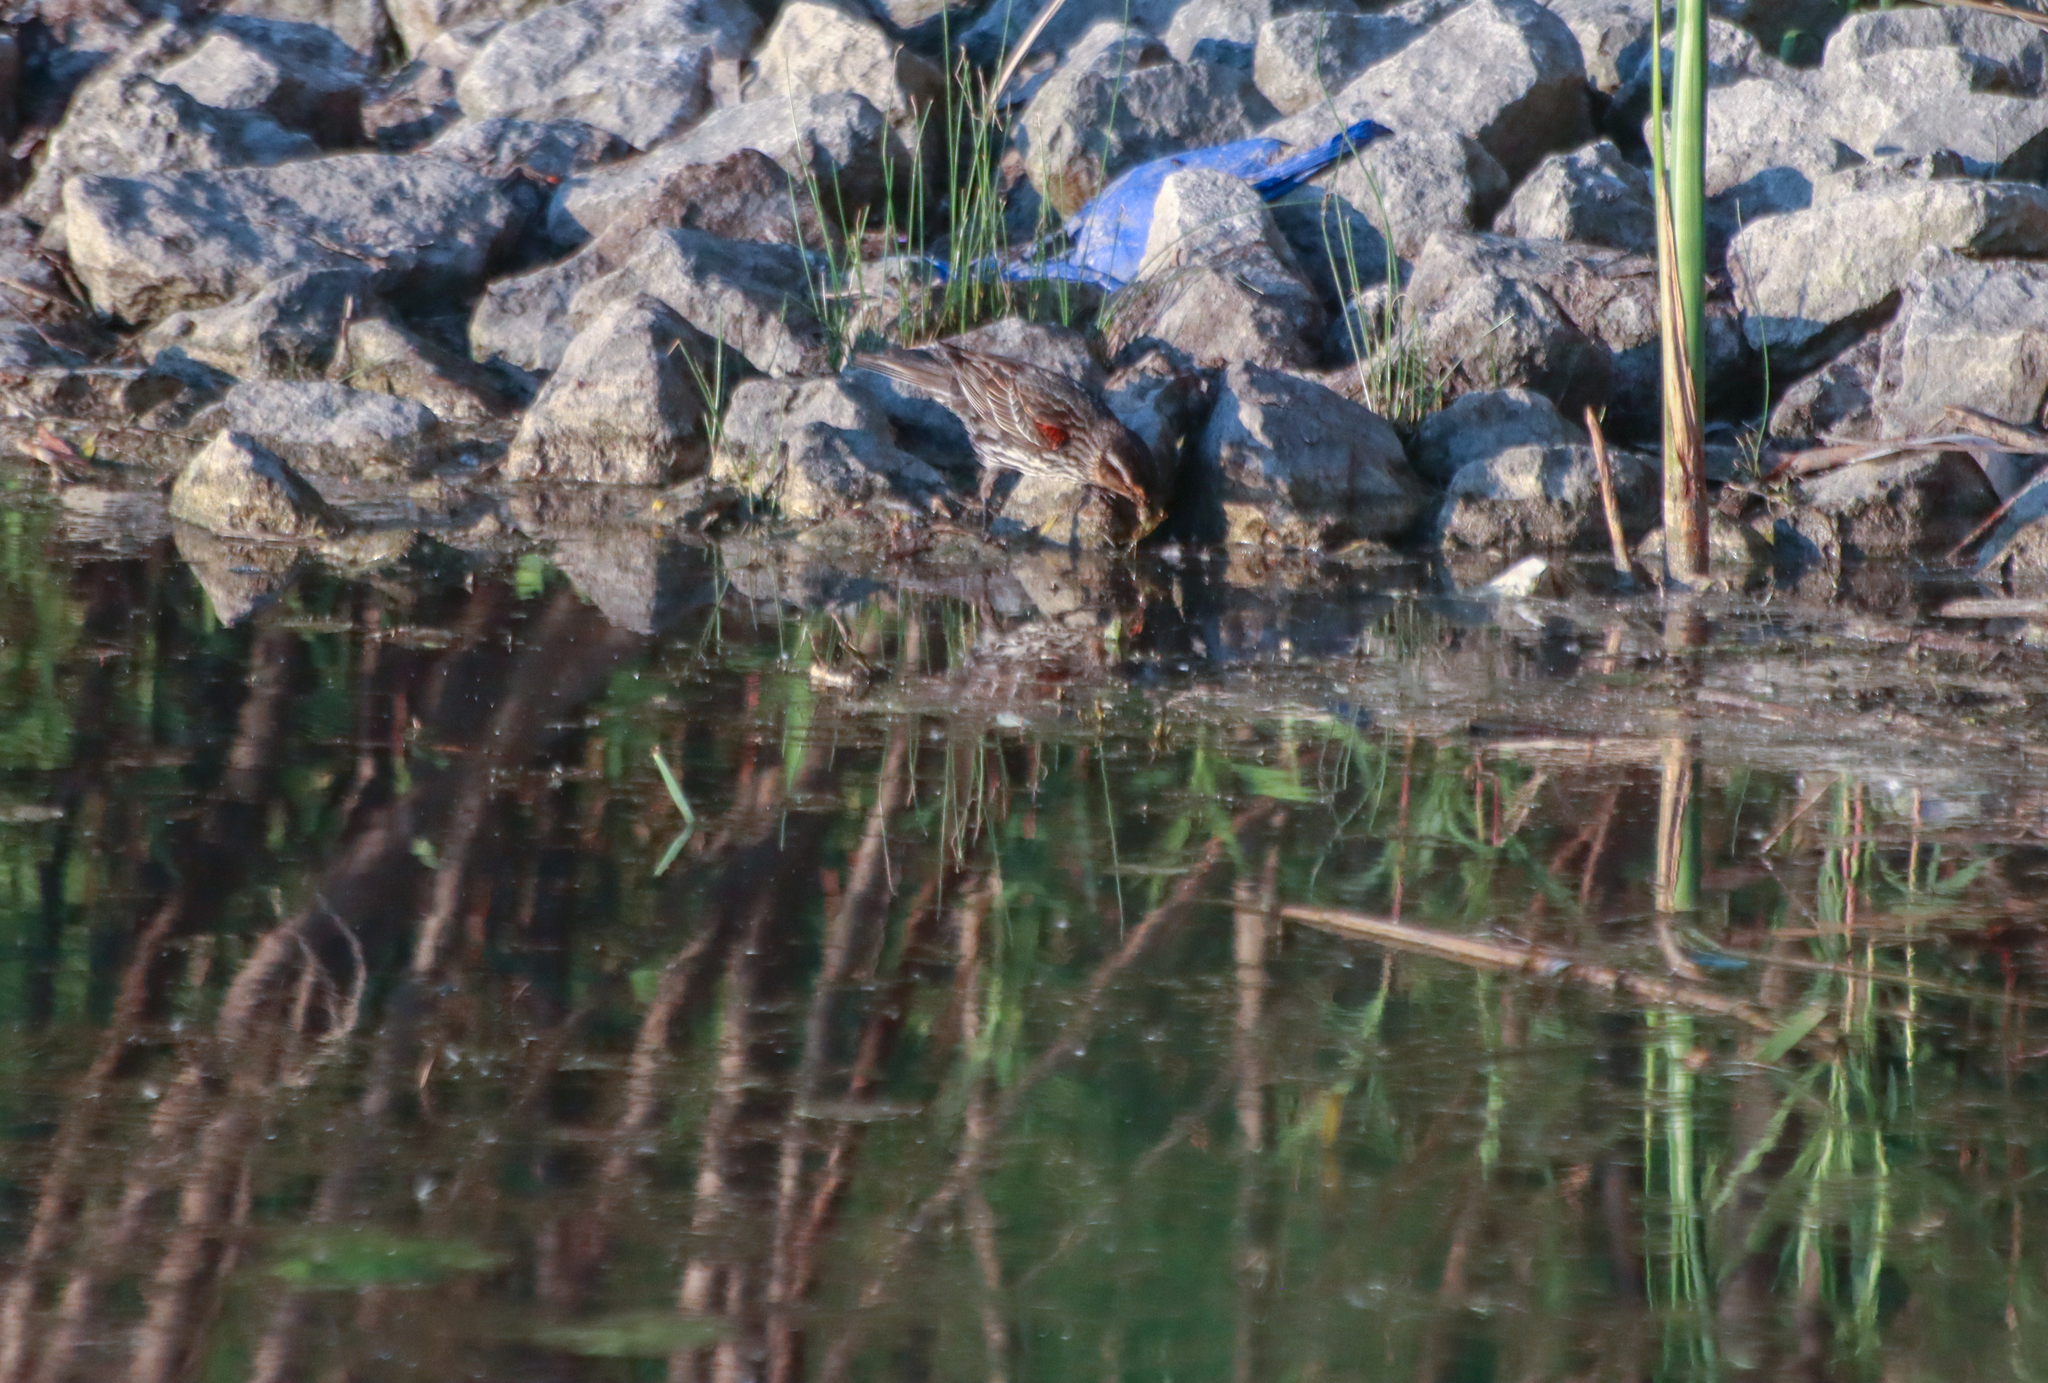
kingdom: Animalia
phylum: Chordata
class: Aves
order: Passeriformes
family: Icteridae
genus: Agelaius
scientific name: Agelaius phoeniceus
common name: Red-winged blackbird
